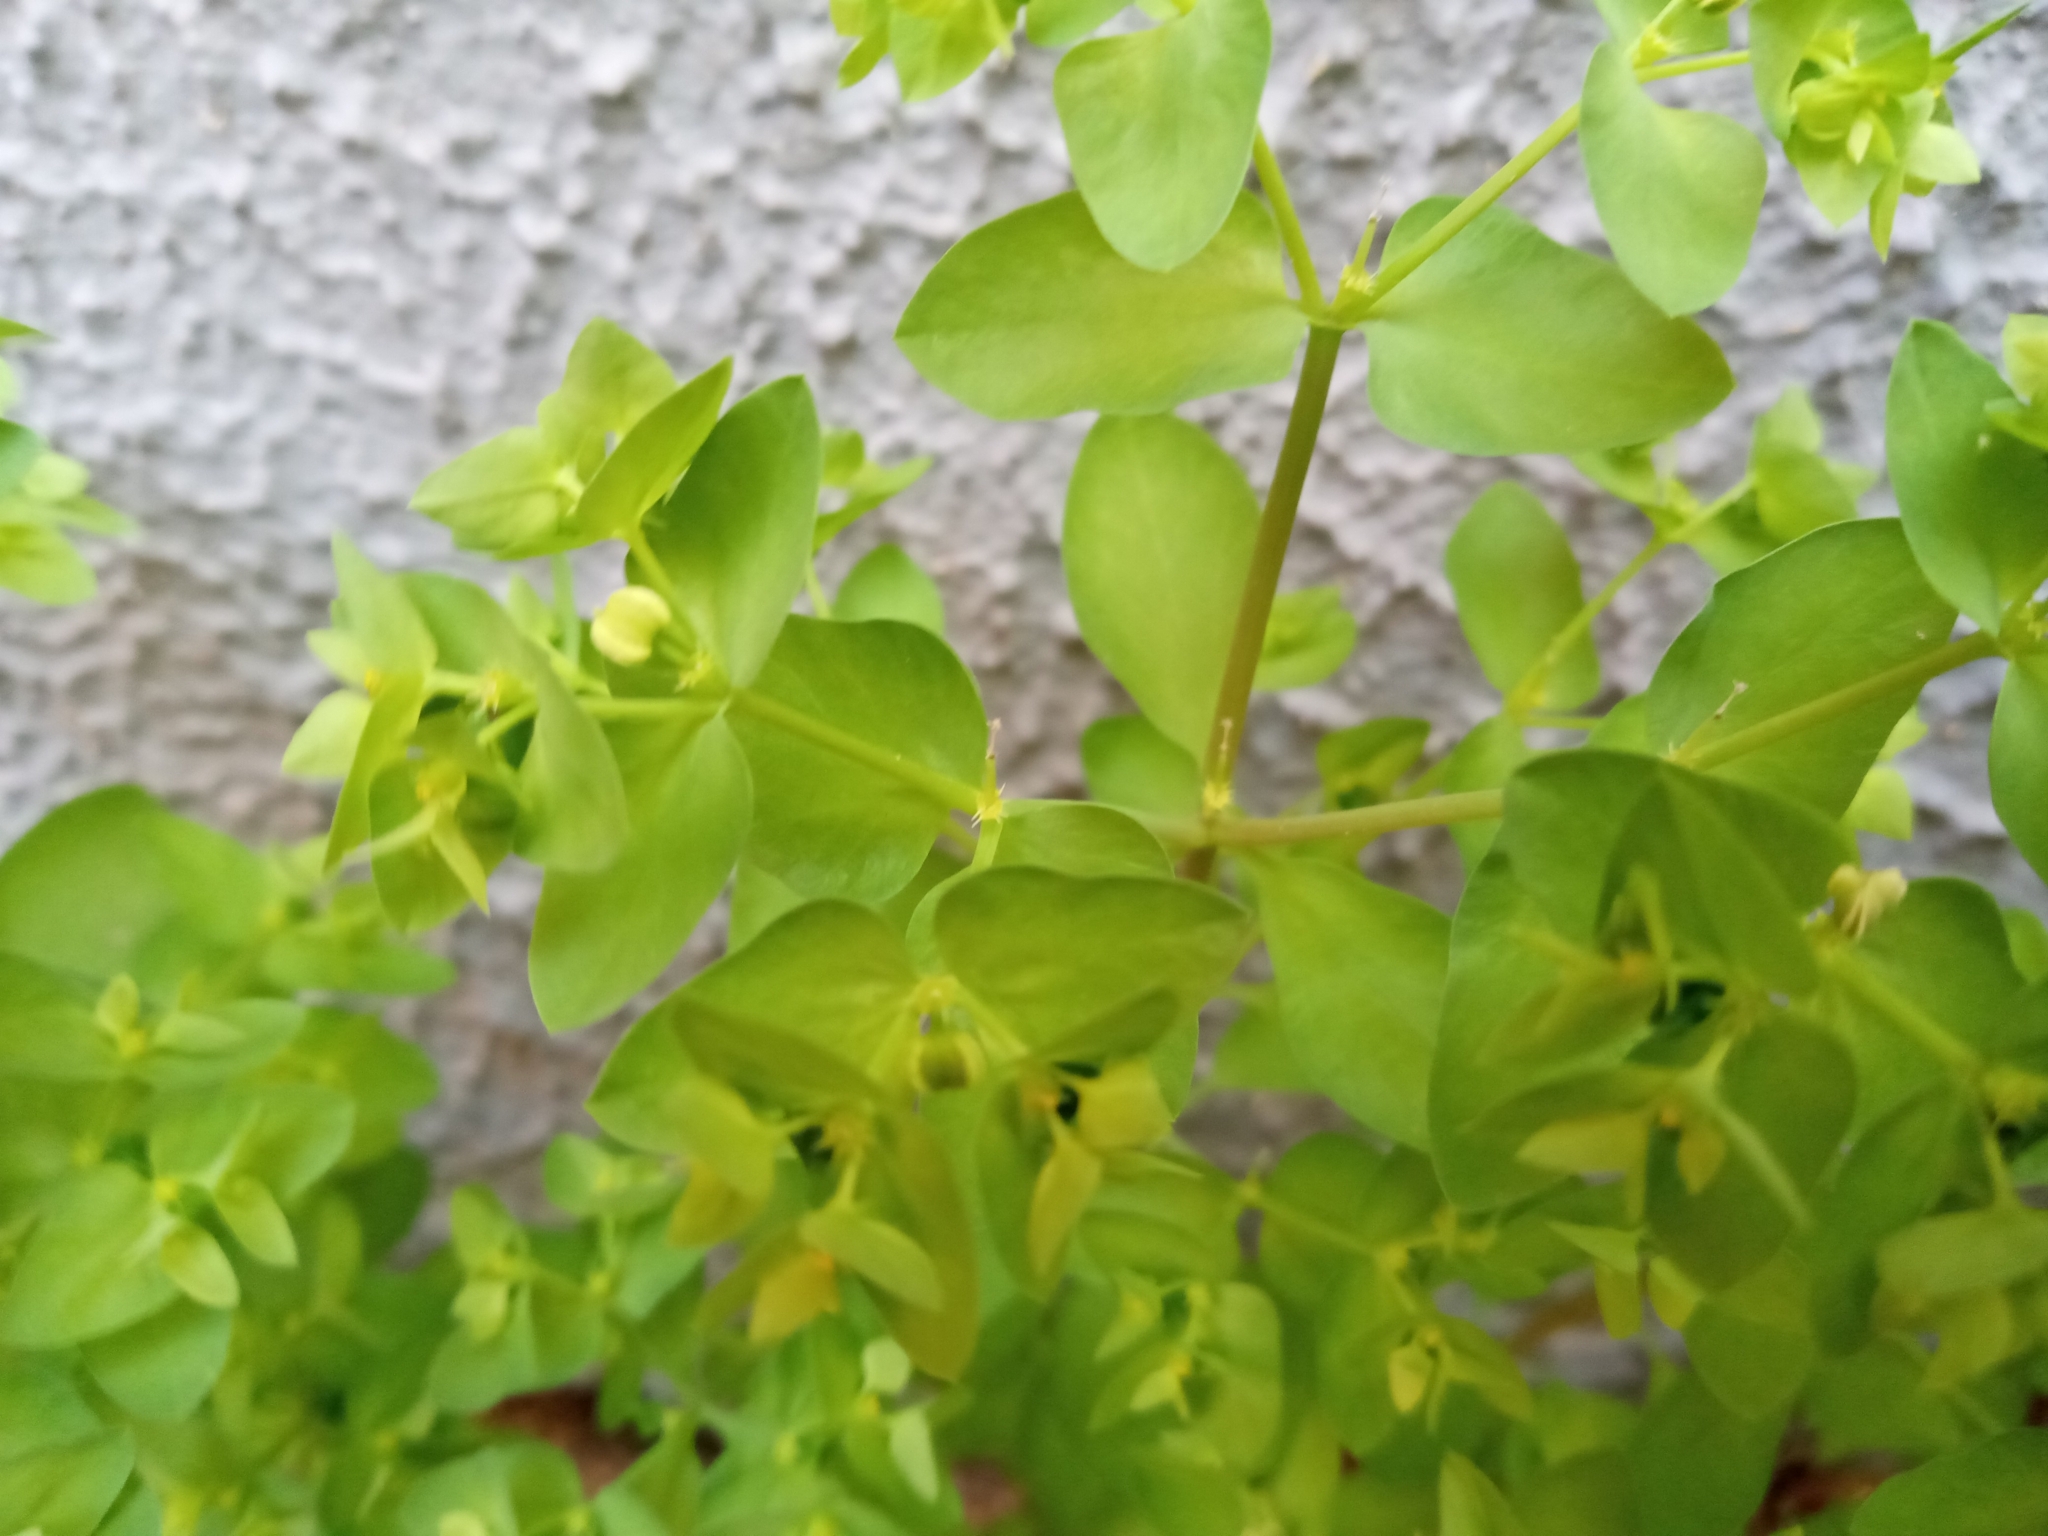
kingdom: Plantae
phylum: Tracheophyta
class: Magnoliopsida
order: Malpighiales
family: Euphorbiaceae
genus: Euphorbia
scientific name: Euphorbia peplus
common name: Petty spurge
